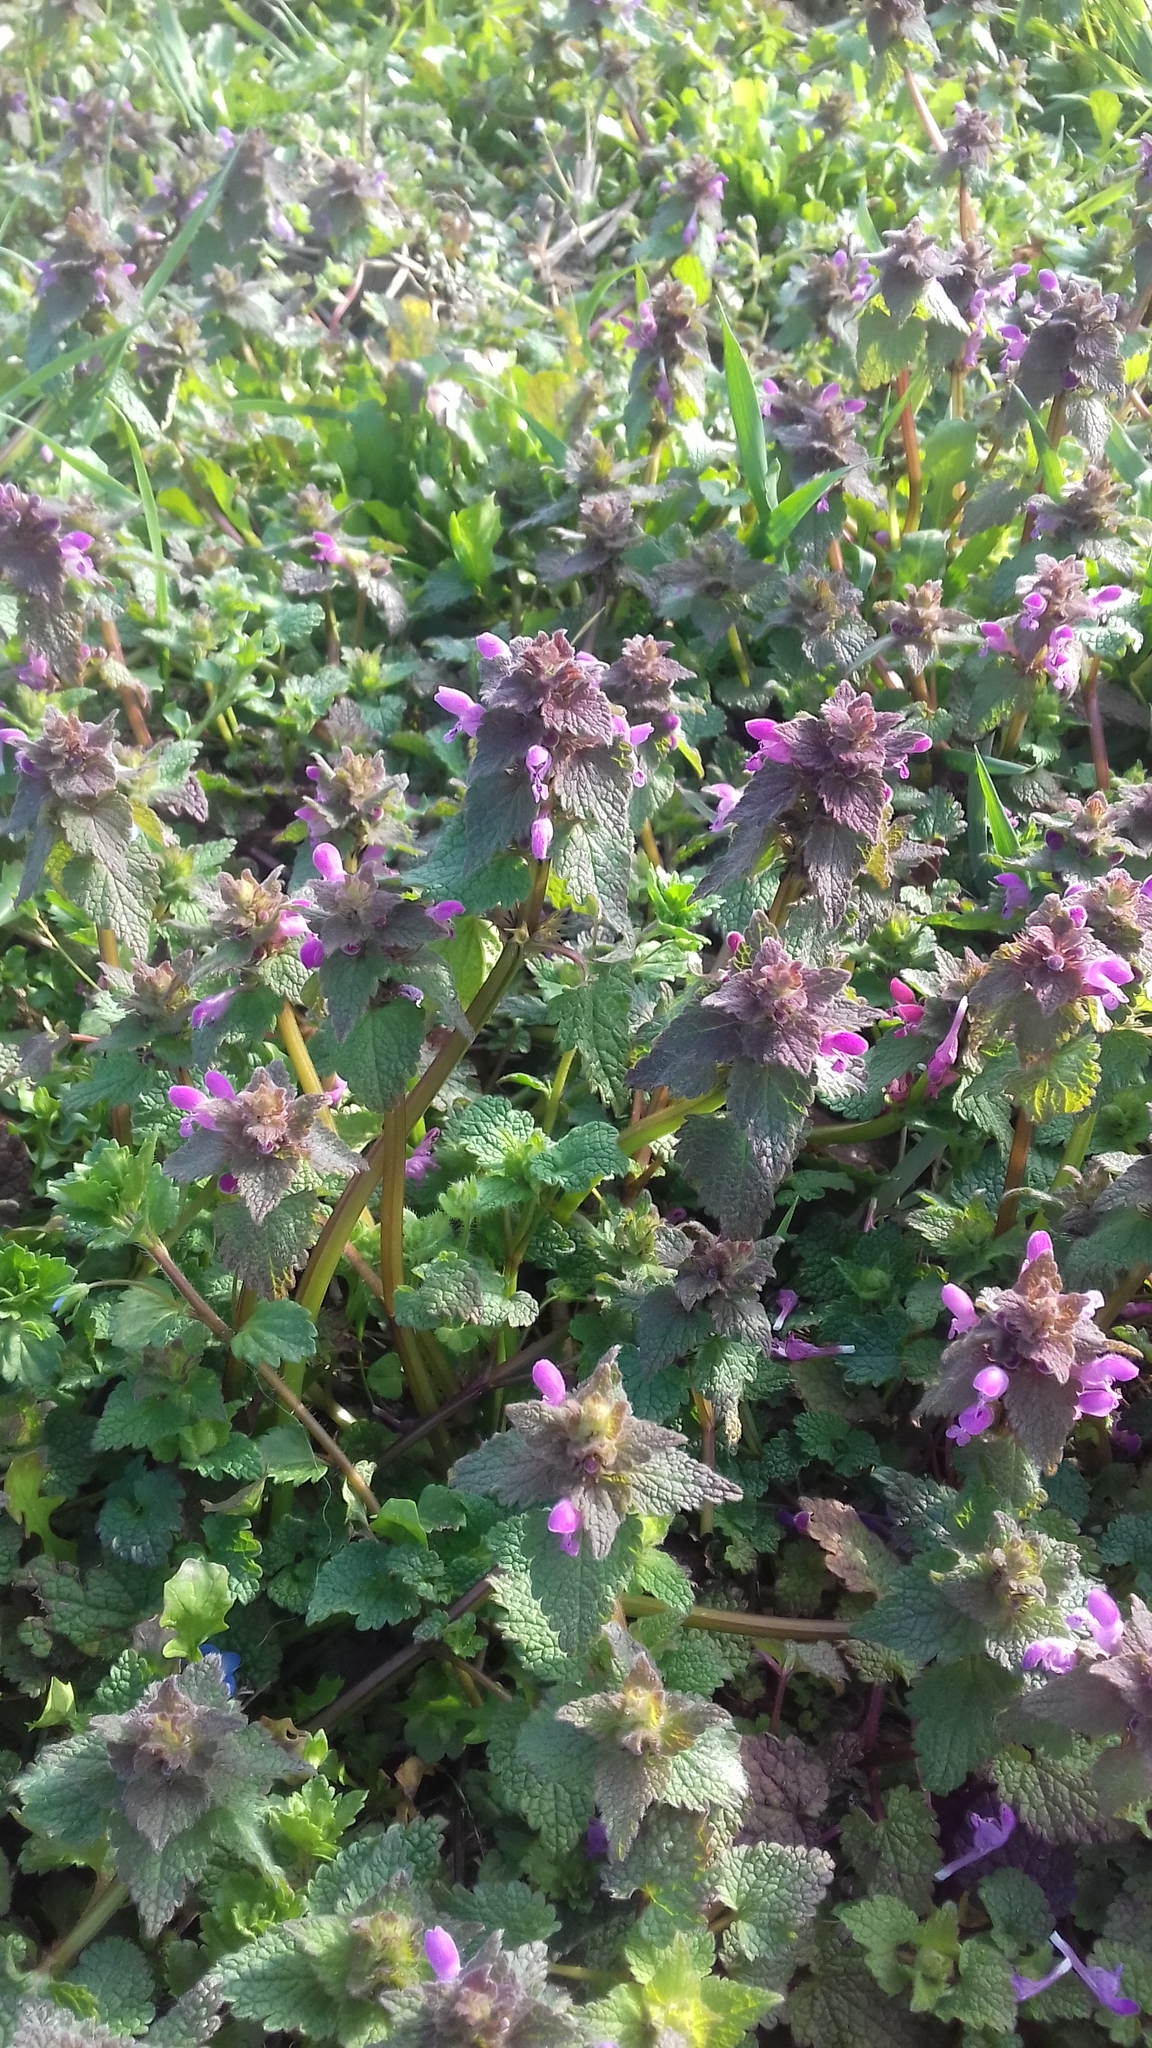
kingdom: Plantae
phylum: Tracheophyta
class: Magnoliopsida
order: Lamiales
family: Lamiaceae
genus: Lamium
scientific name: Lamium purpureum
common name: Red dead-nettle
